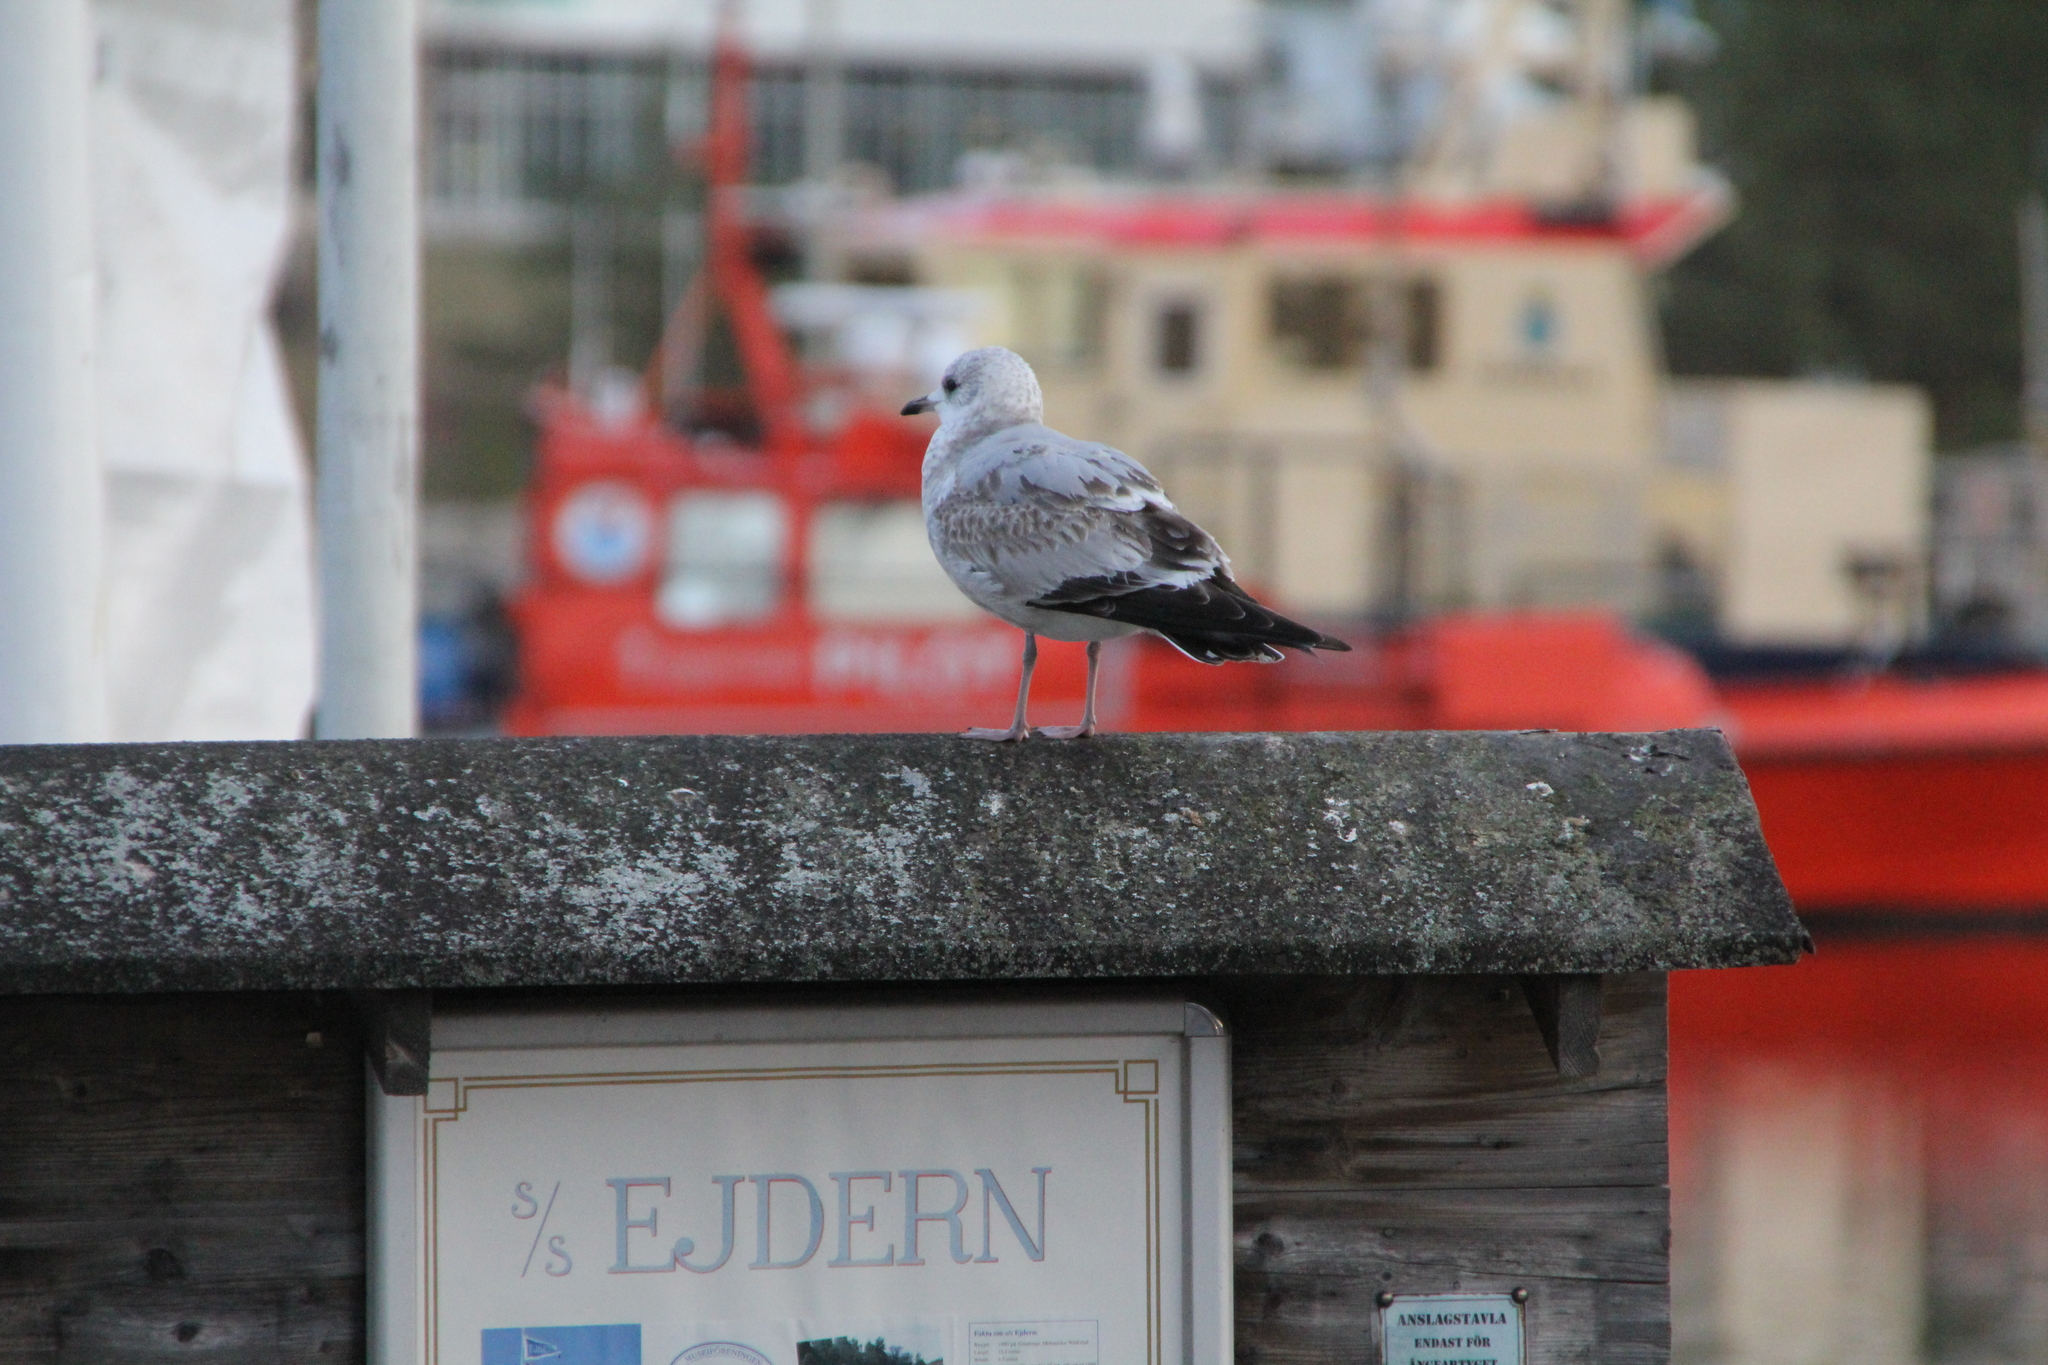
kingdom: Animalia
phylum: Chordata
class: Aves
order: Charadriiformes
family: Laridae
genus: Larus
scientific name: Larus canus
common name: Mew gull
